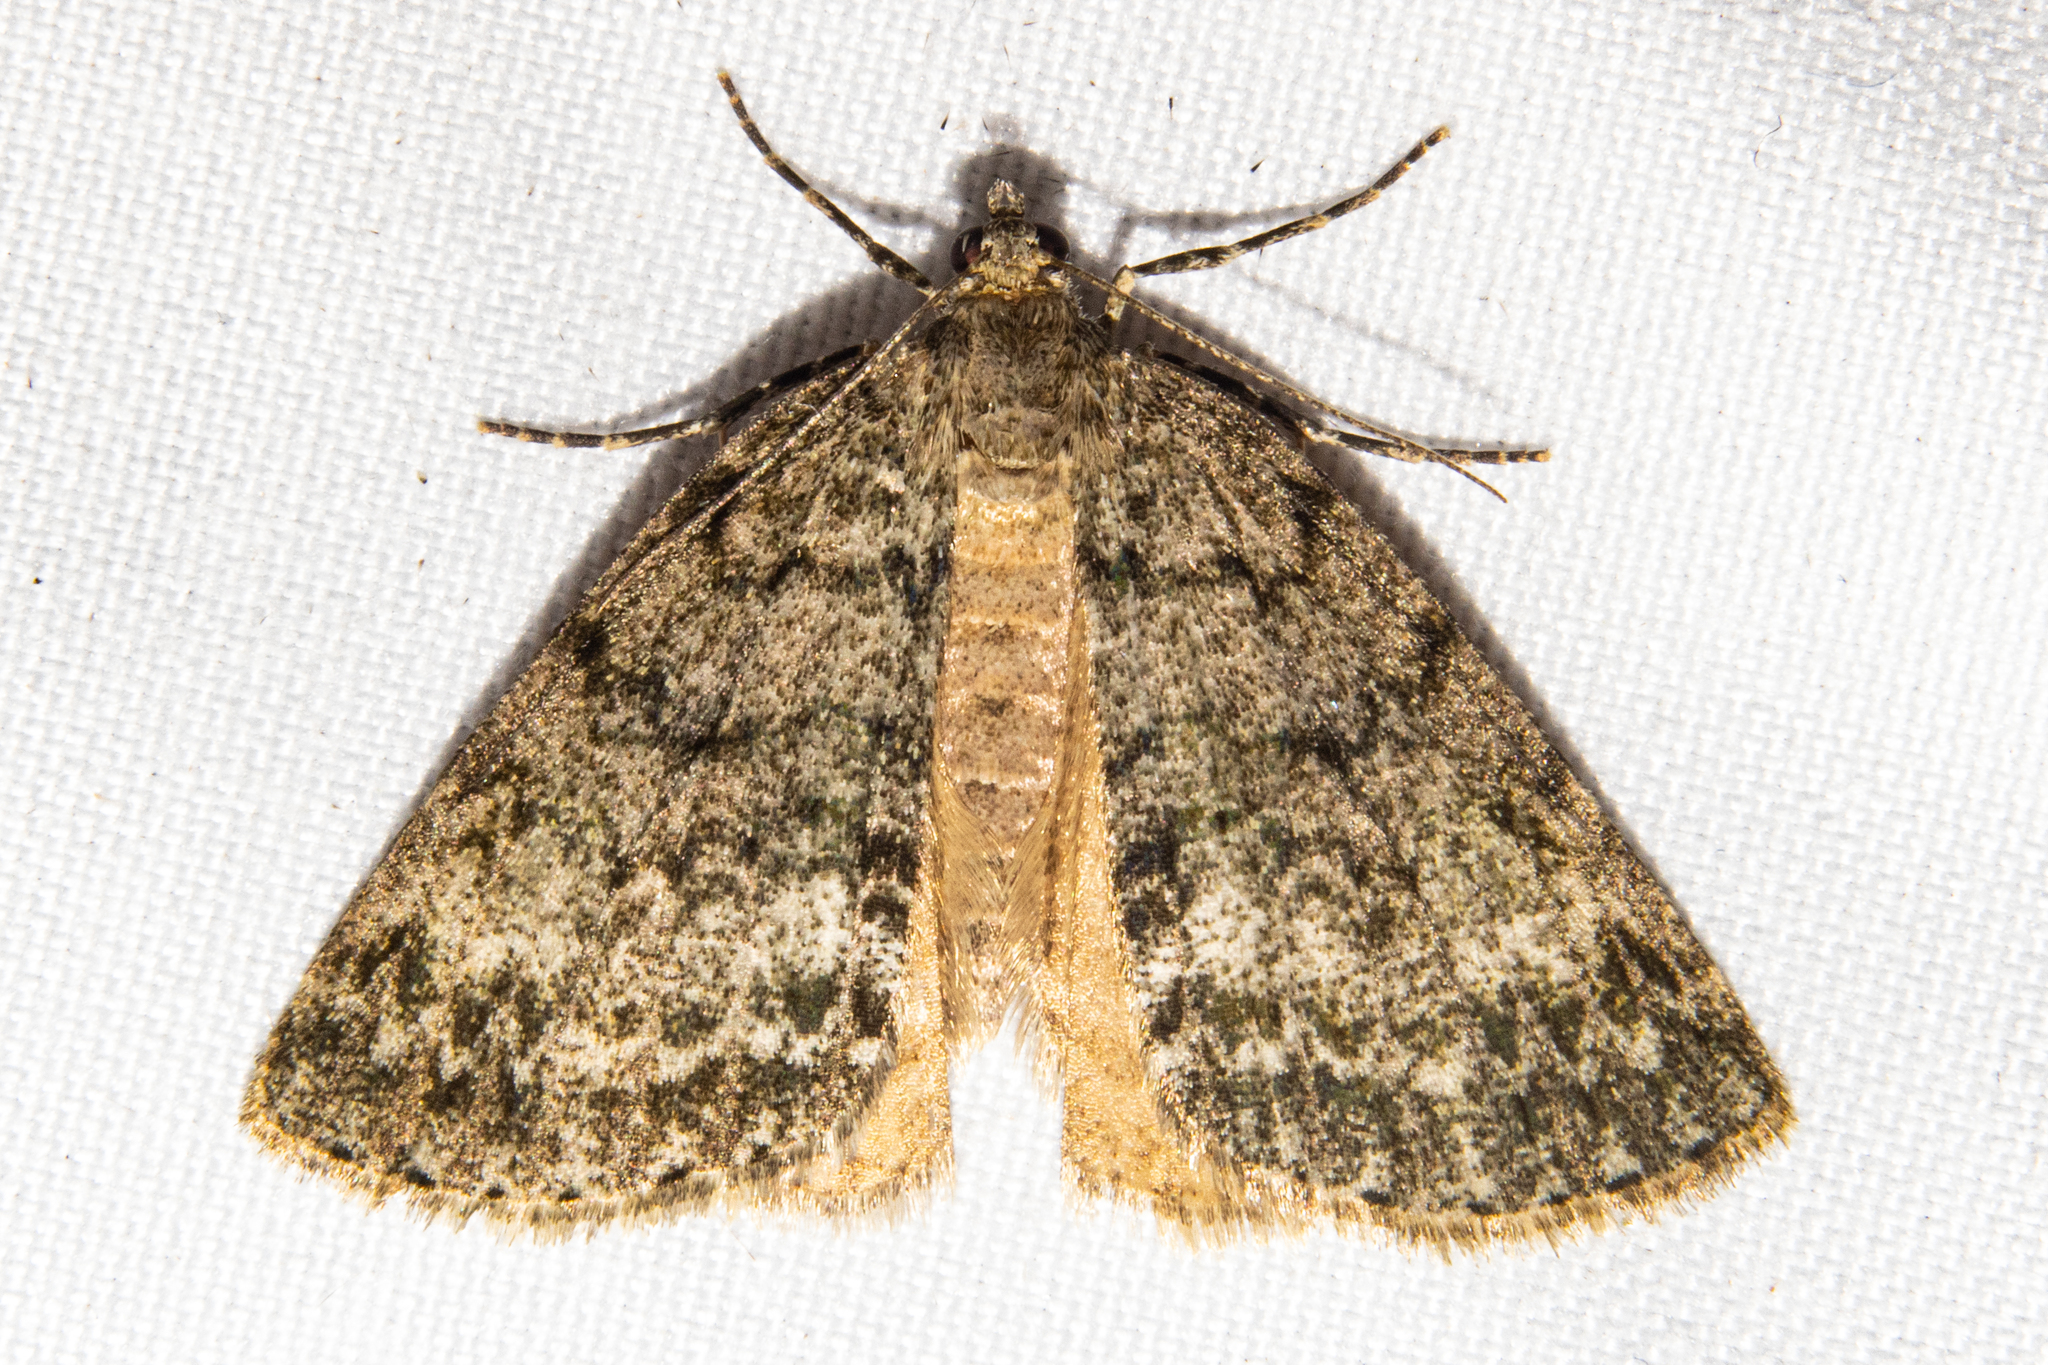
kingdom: Animalia
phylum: Arthropoda
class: Insecta
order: Lepidoptera
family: Geometridae
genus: Pseudocoremia
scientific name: Pseudocoremia indistincta
